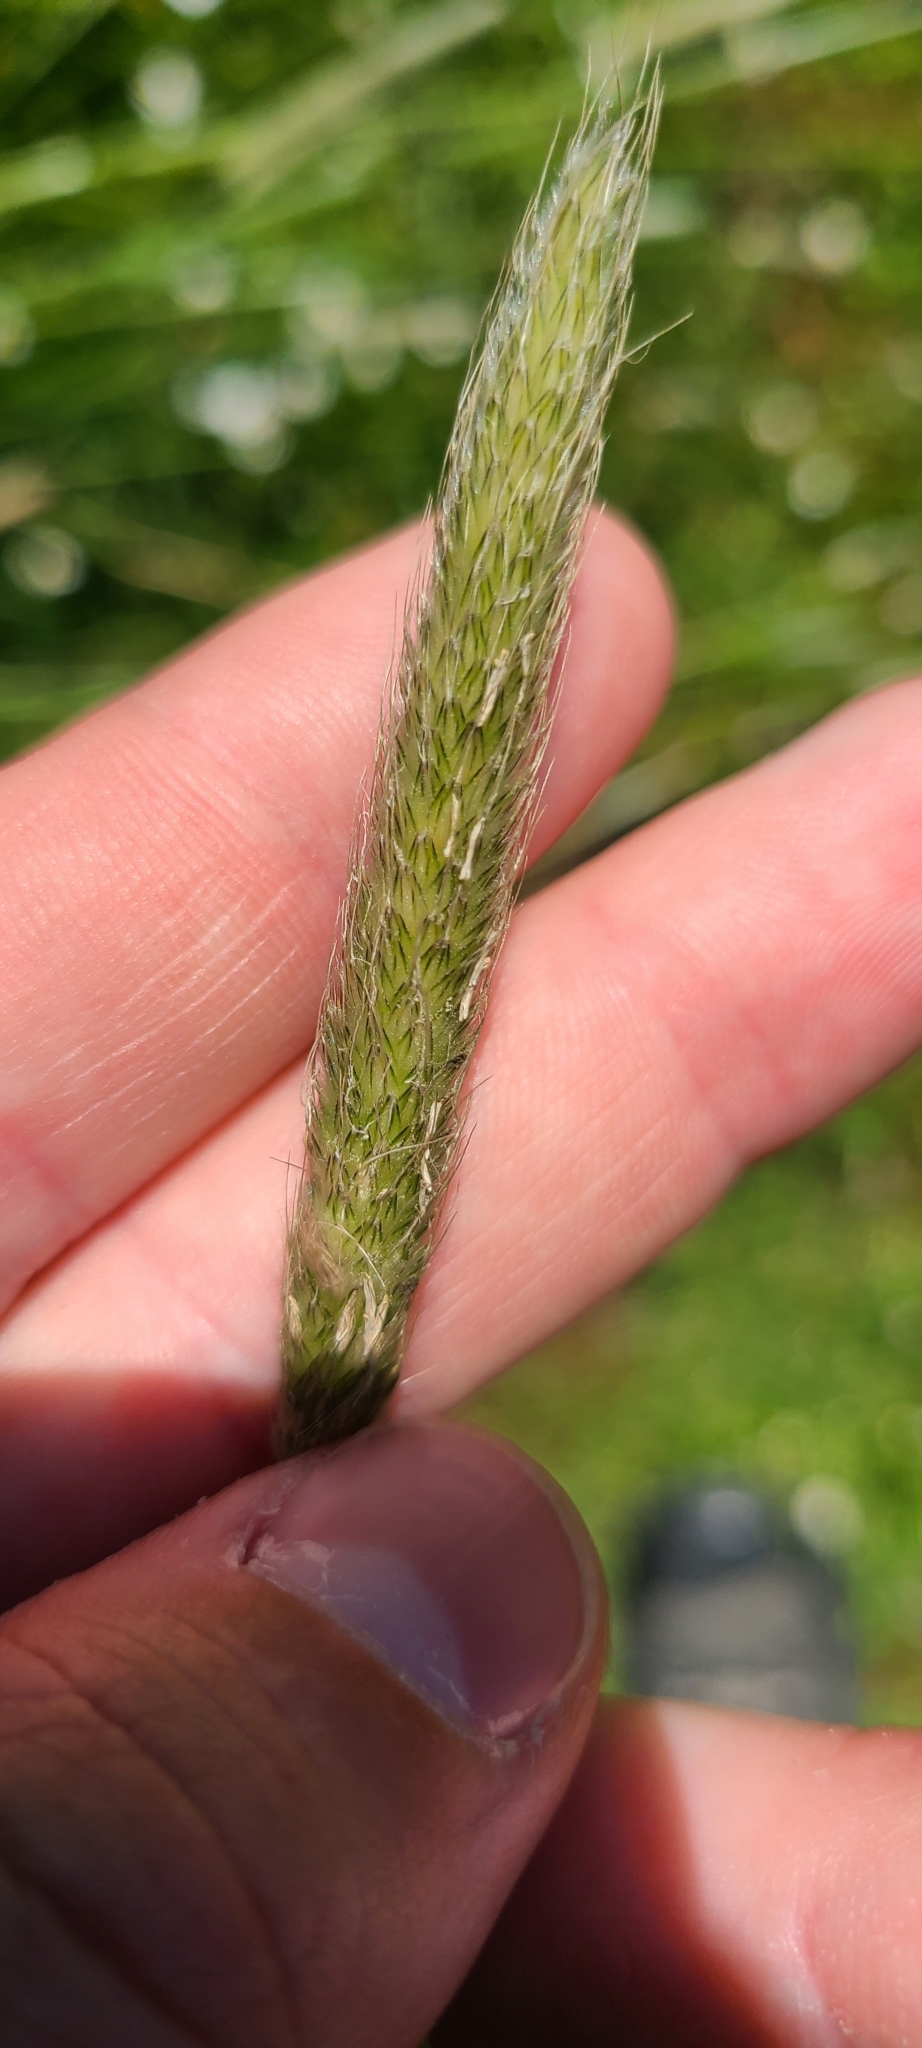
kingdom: Plantae
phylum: Tracheophyta
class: Liliopsida
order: Poales
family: Poaceae
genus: Phleum
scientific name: Phleum pratense
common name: Timothy grass
